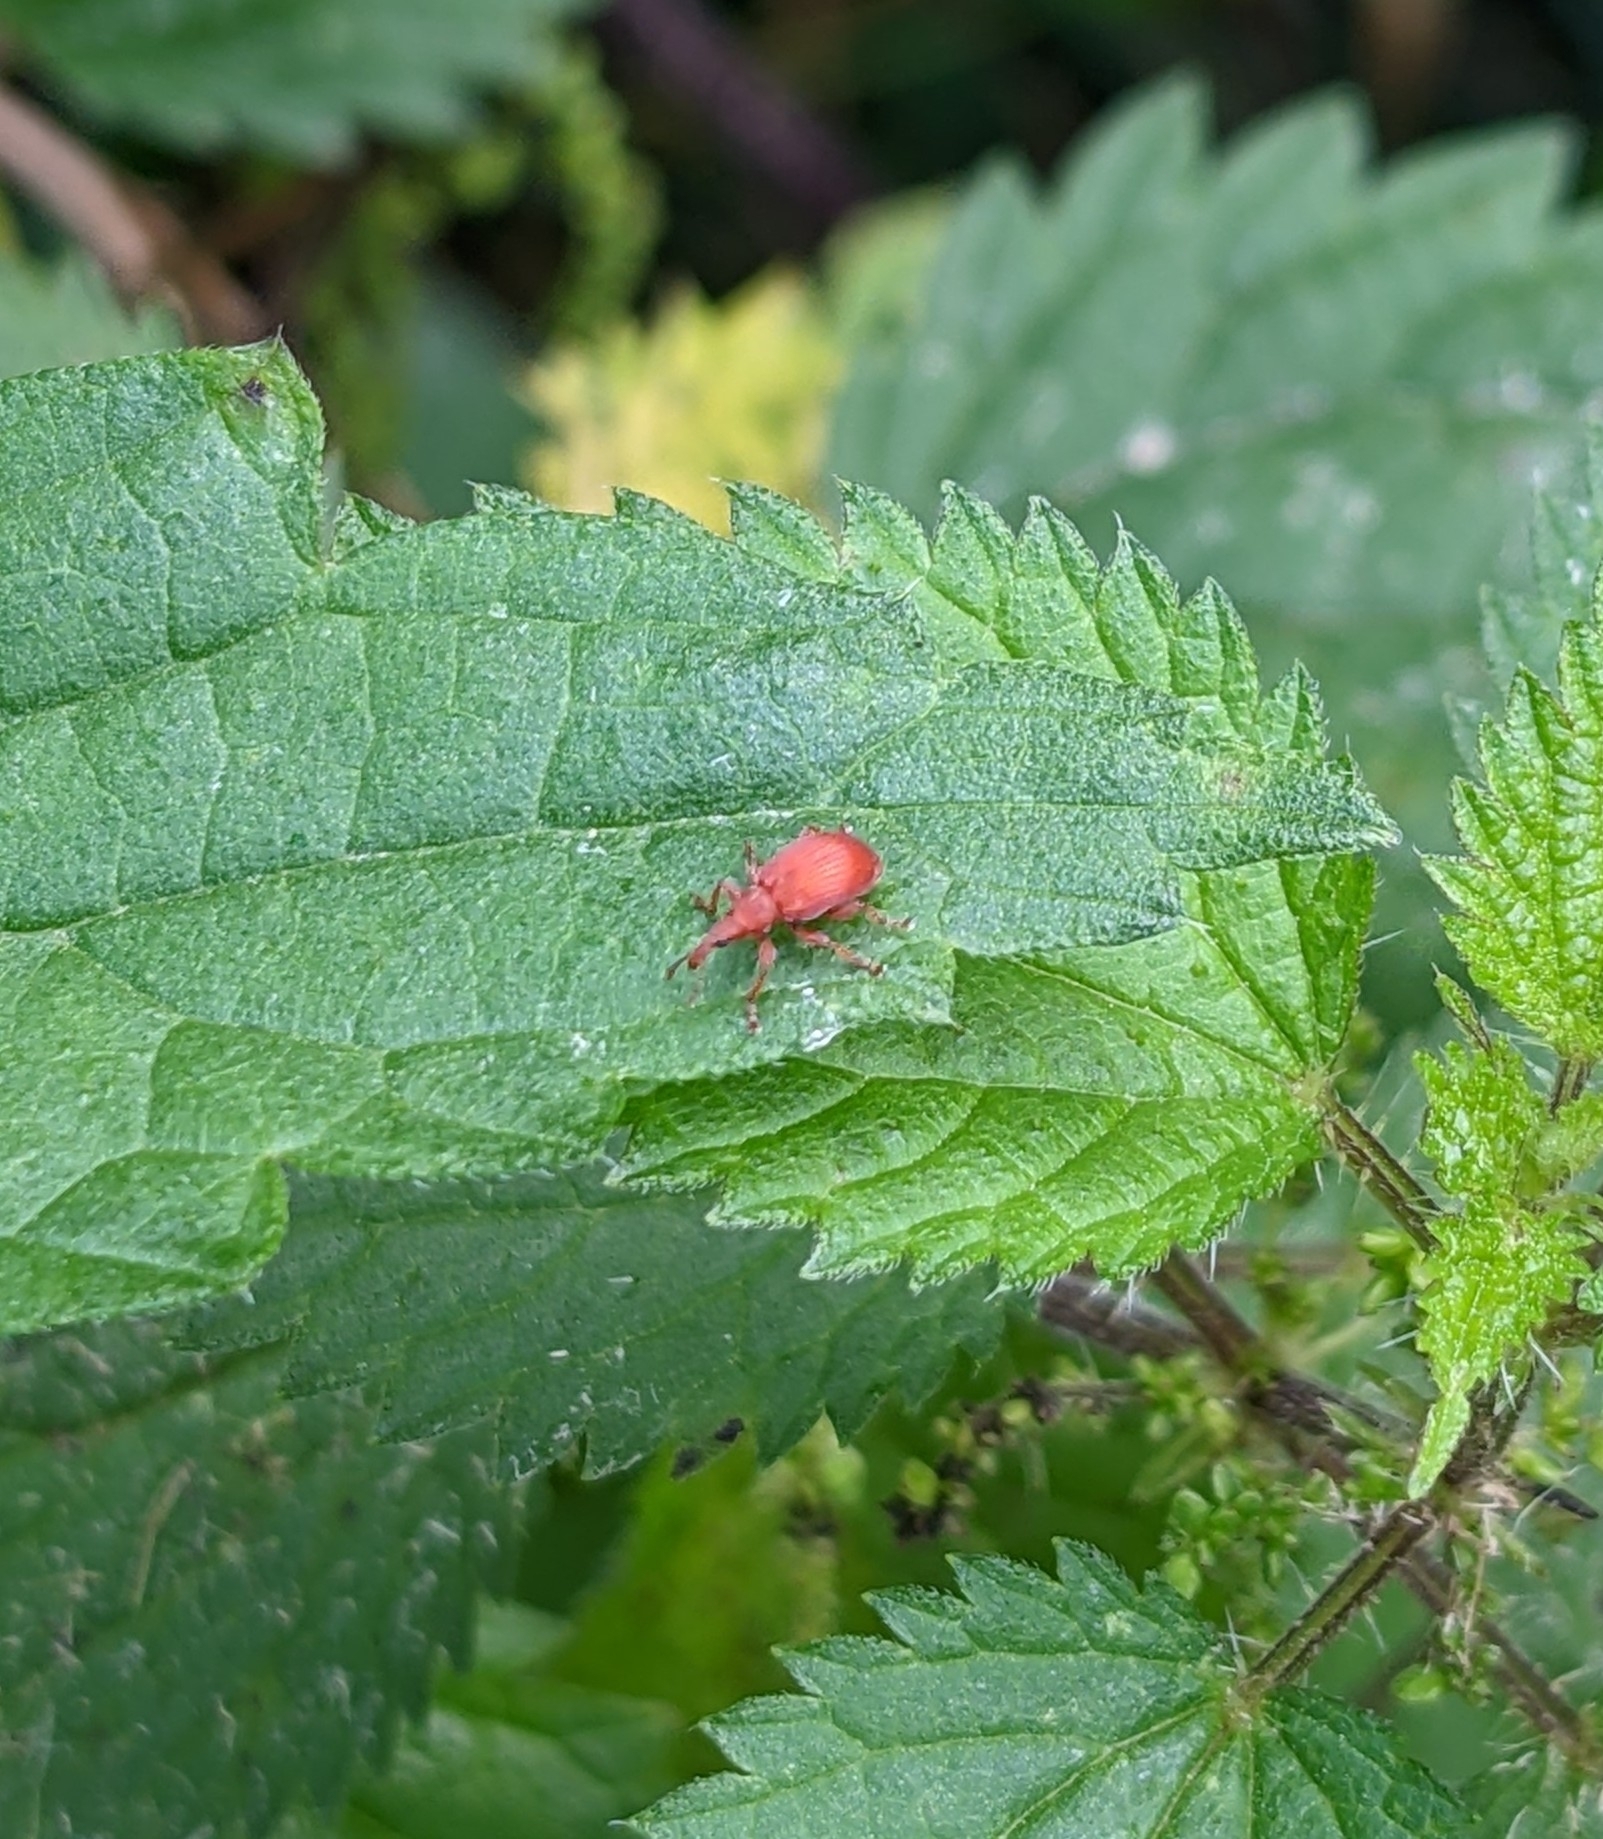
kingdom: Animalia
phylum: Arthropoda
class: Insecta
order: Coleoptera
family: Apionidae
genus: Apion
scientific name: Apion frumentarium
